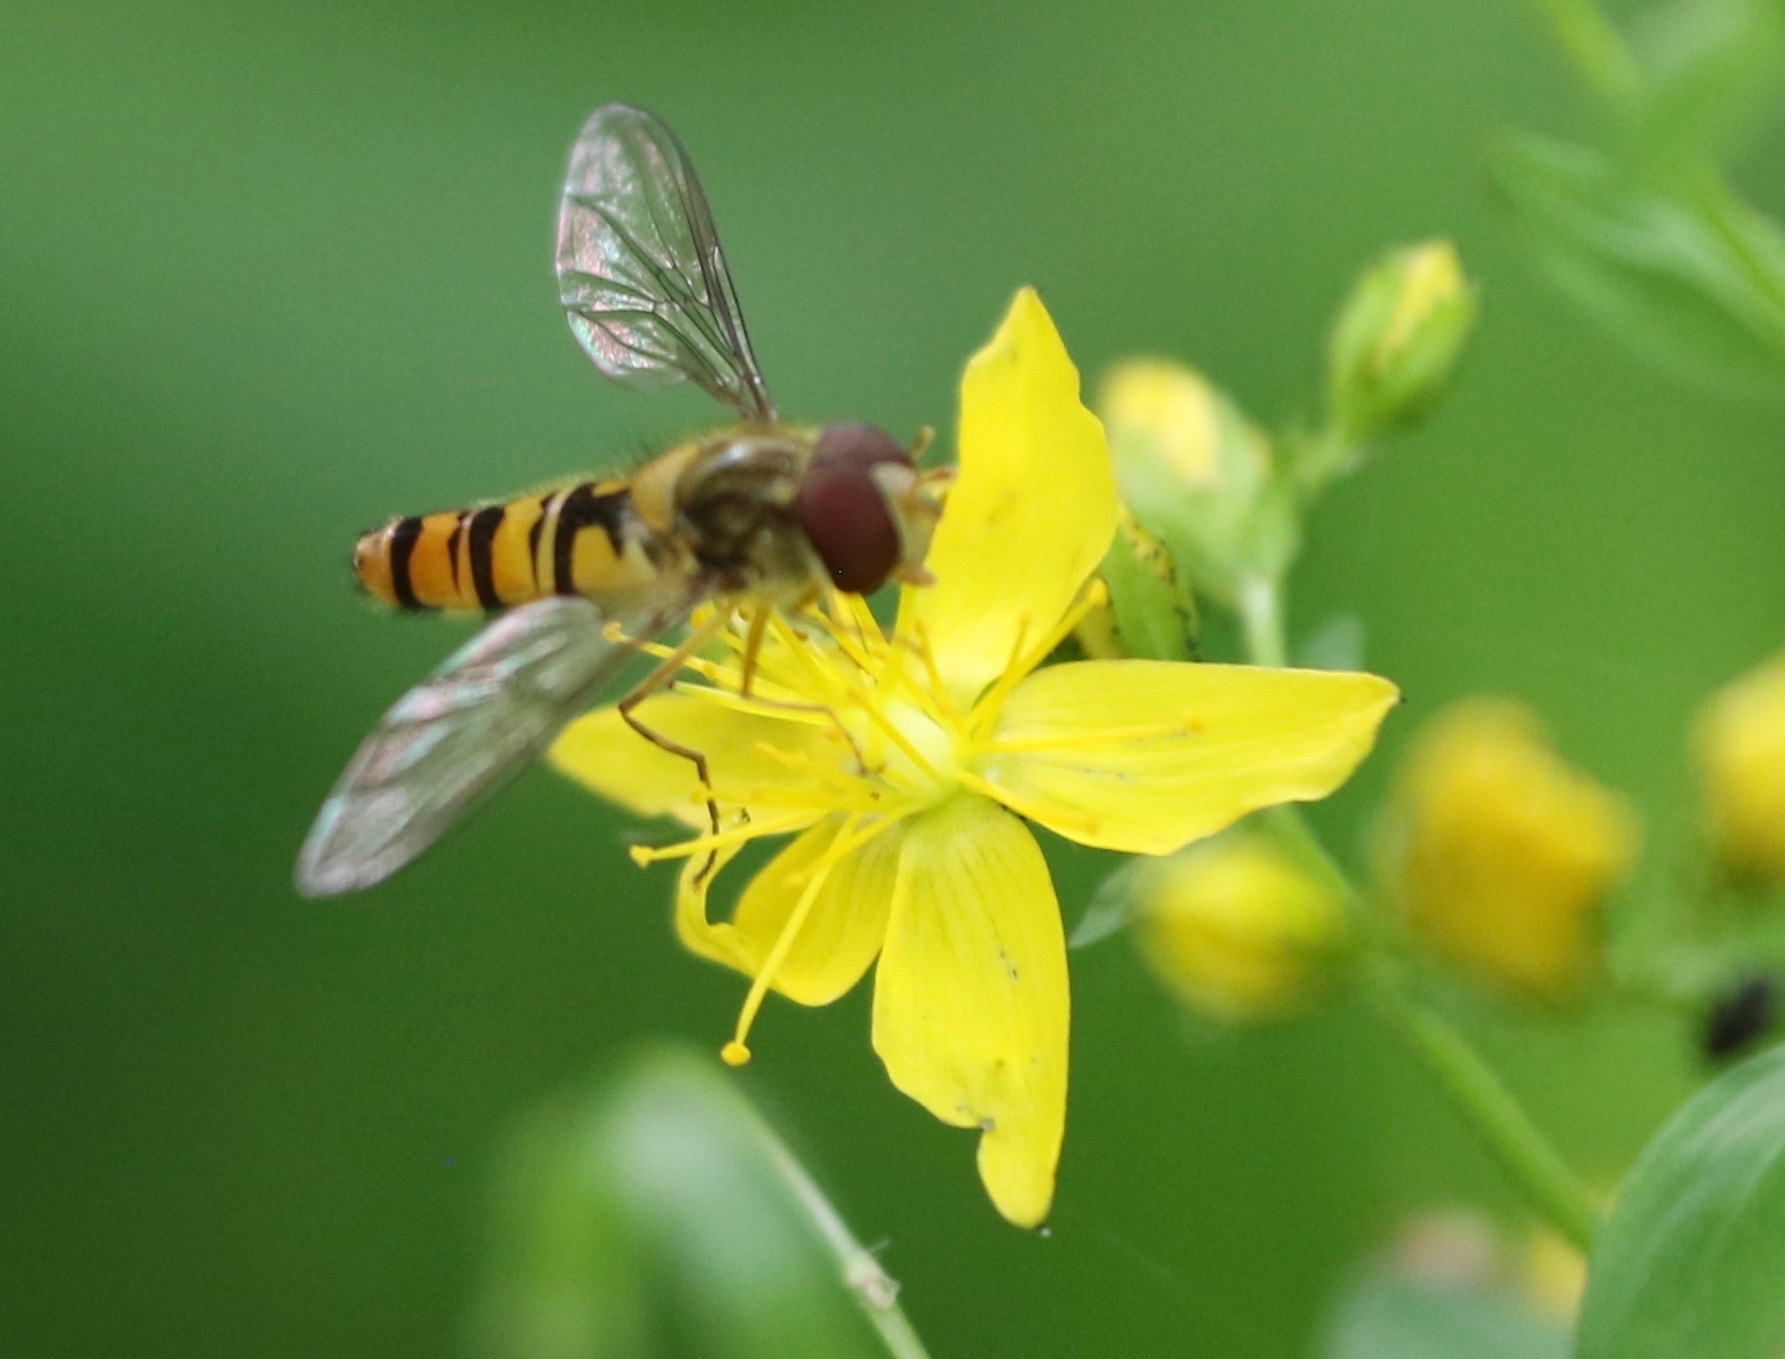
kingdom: Animalia
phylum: Arthropoda
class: Insecta
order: Diptera
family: Syrphidae
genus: Episyrphus
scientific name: Episyrphus balteatus
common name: Marmalade hoverfly
